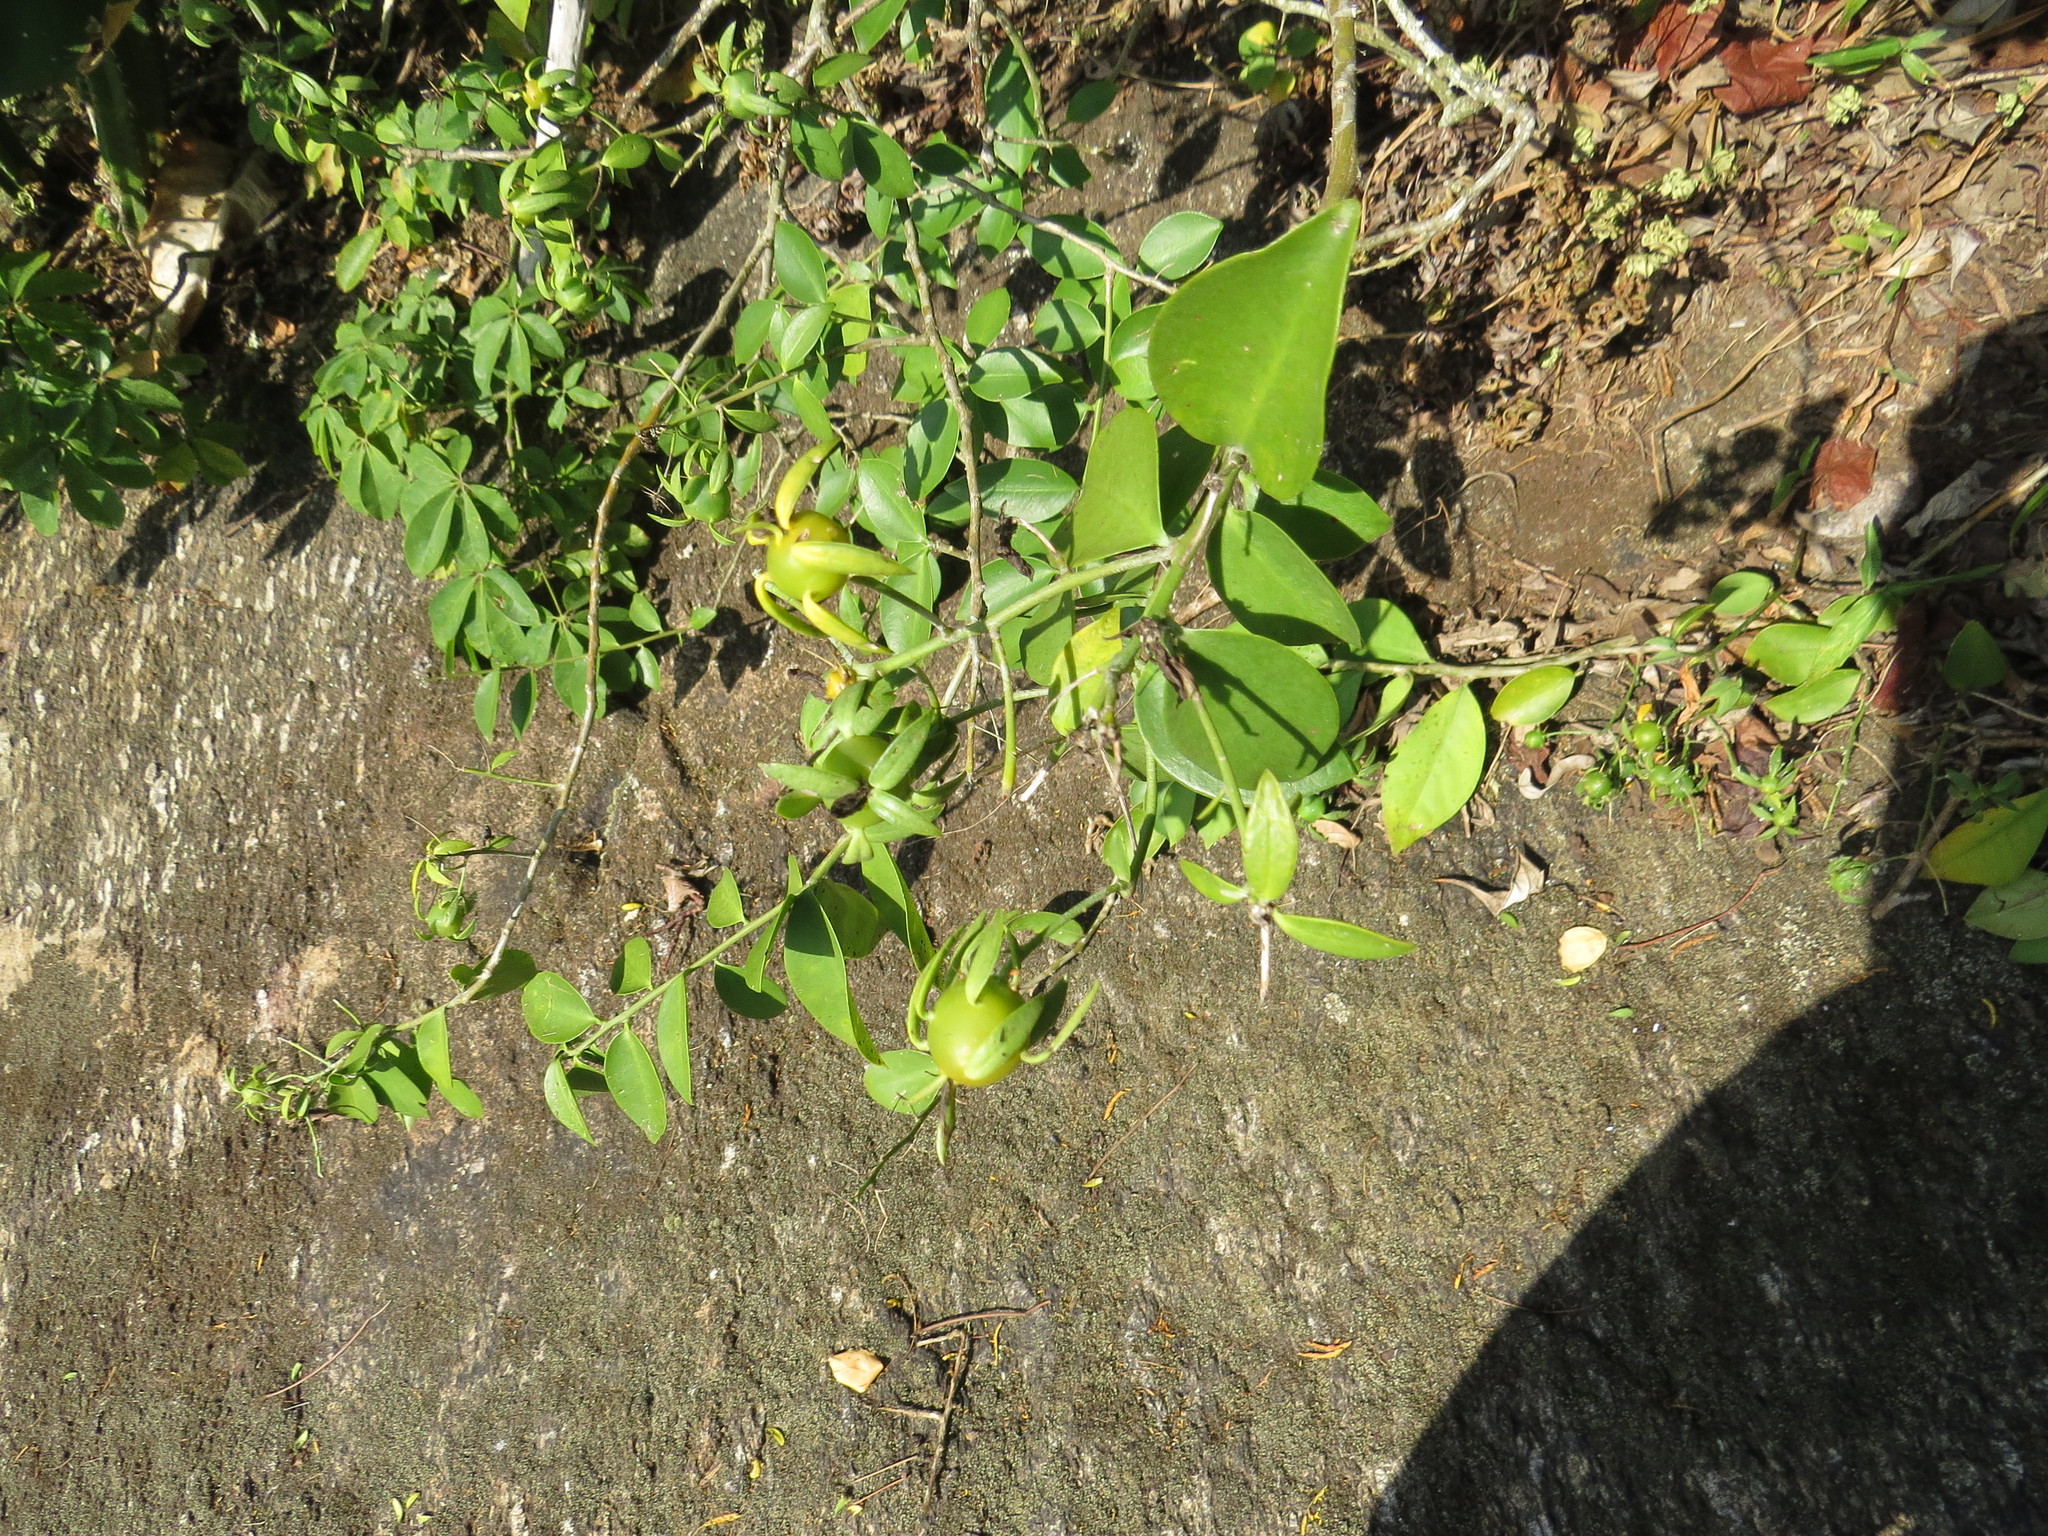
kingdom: Plantae
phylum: Tracheophyta
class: Magnoliopsida
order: Caryophyllales
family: Cactaceae
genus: Pereskia
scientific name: Pereskia aculeata
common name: Barbados gooseberry
